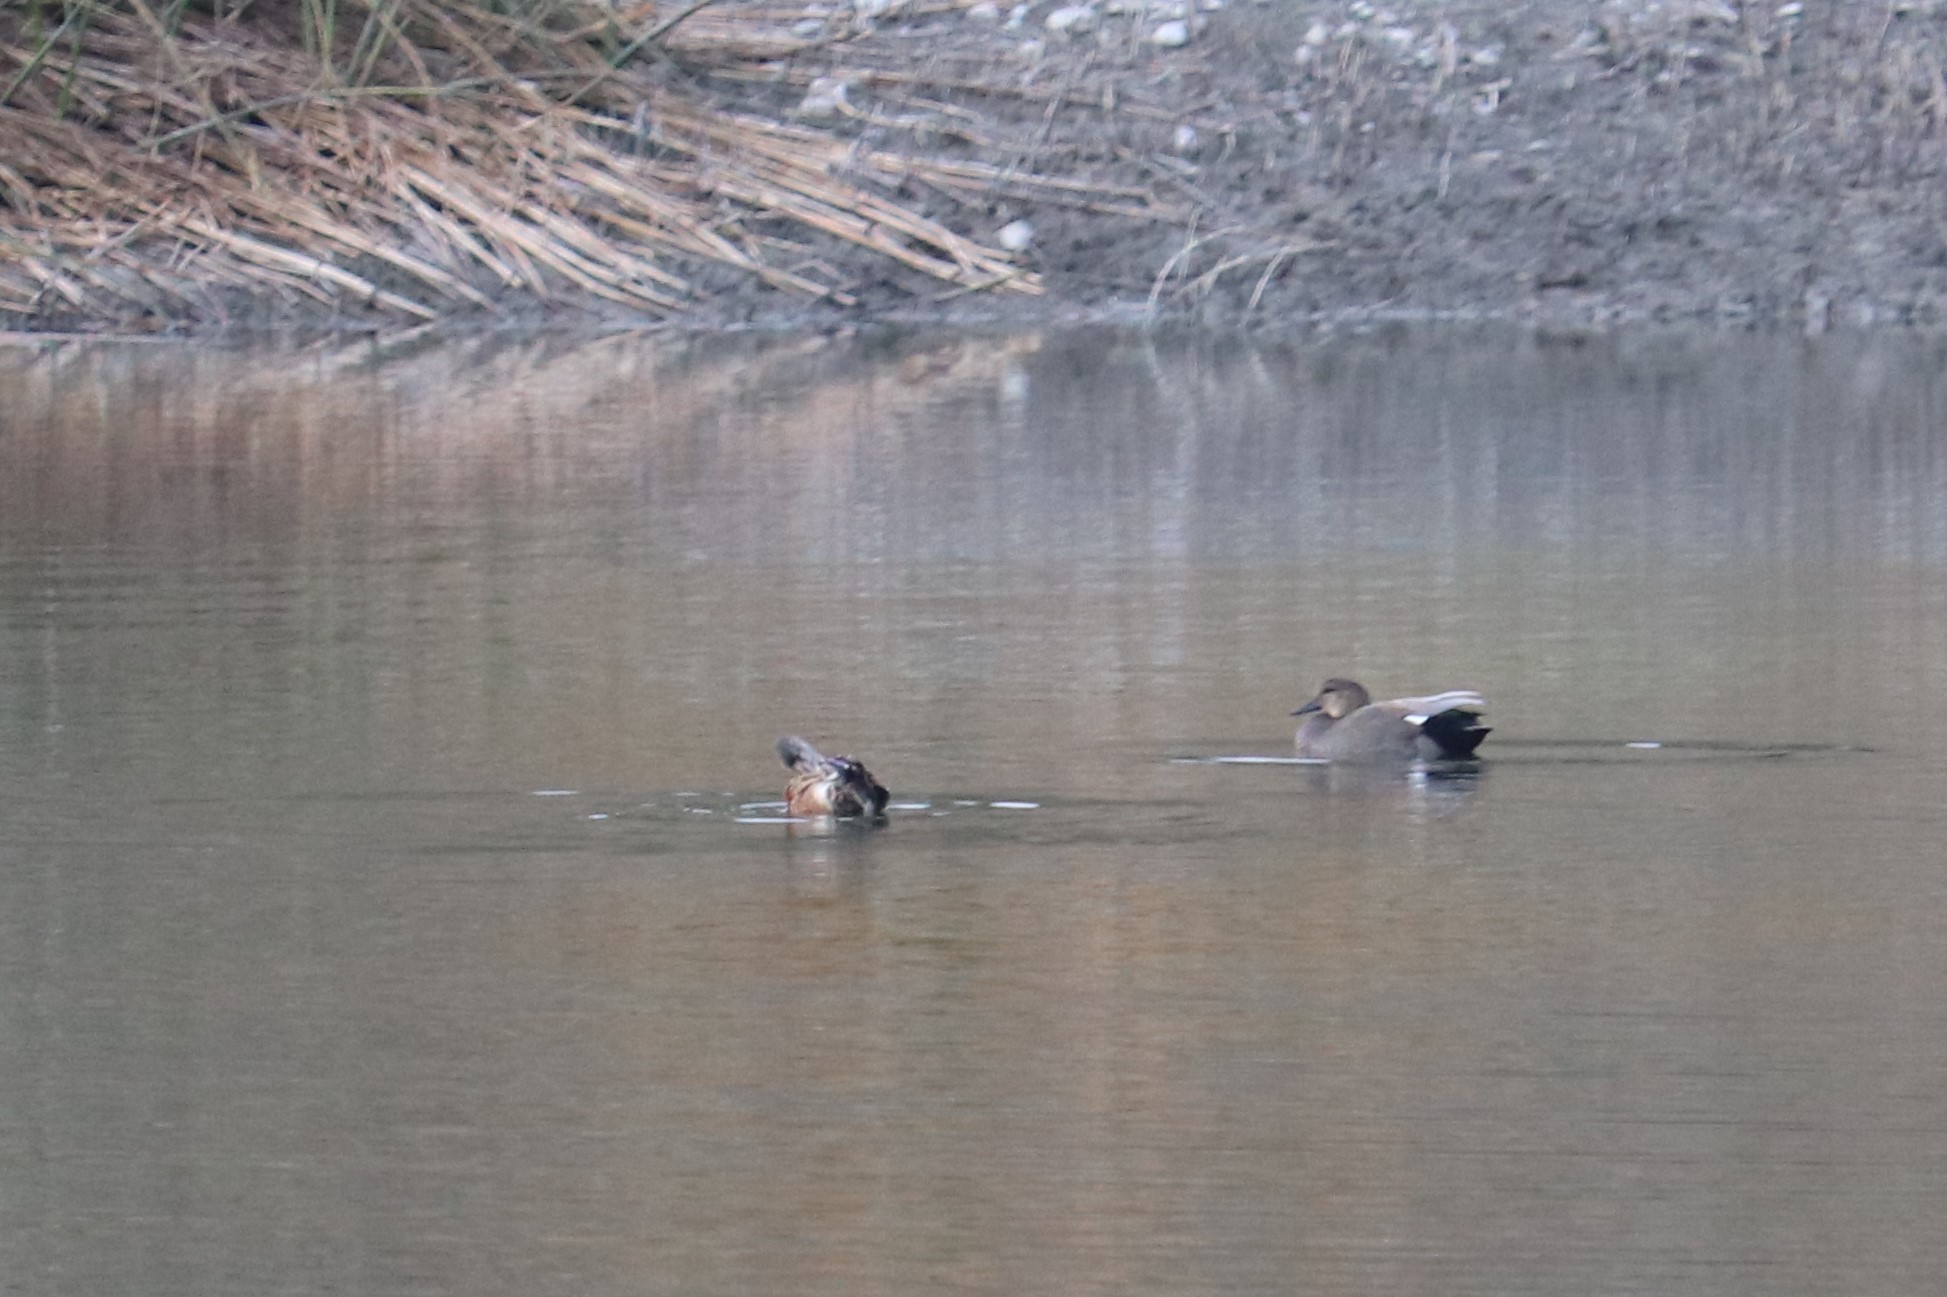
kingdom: Animalia
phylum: Chordata
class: Aves
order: Anseriformes
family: Anatidae
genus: Mareca
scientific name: Mareca strepera
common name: Gadwall
